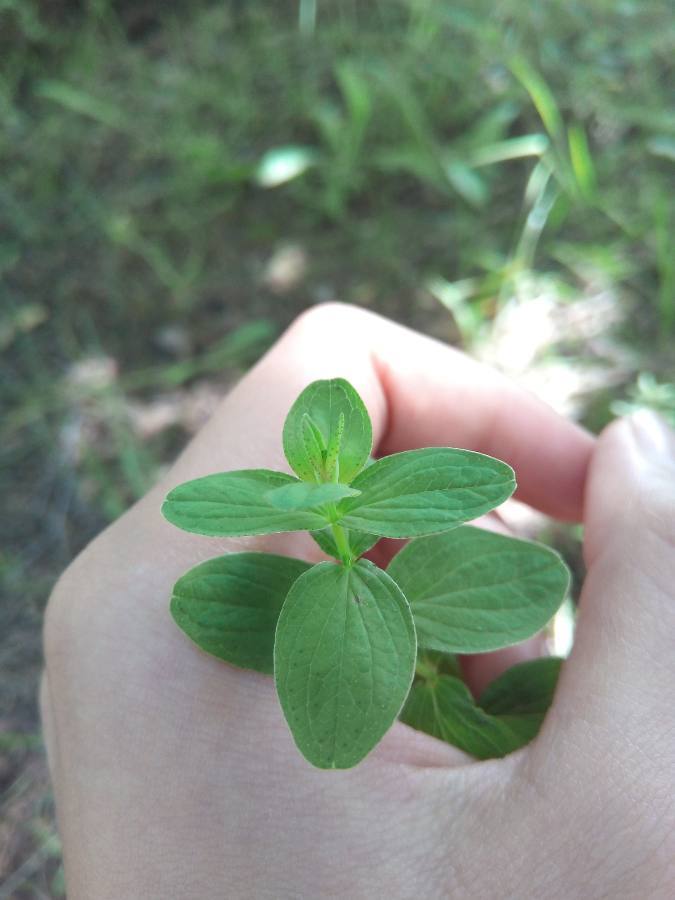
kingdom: Plantae
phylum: Tracheophyta
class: Magnoliopsida
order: Malpighiales
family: Hypericaceae
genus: Hypericum
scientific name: Hypericum maculatum
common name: Imperforate st. john's-wort
